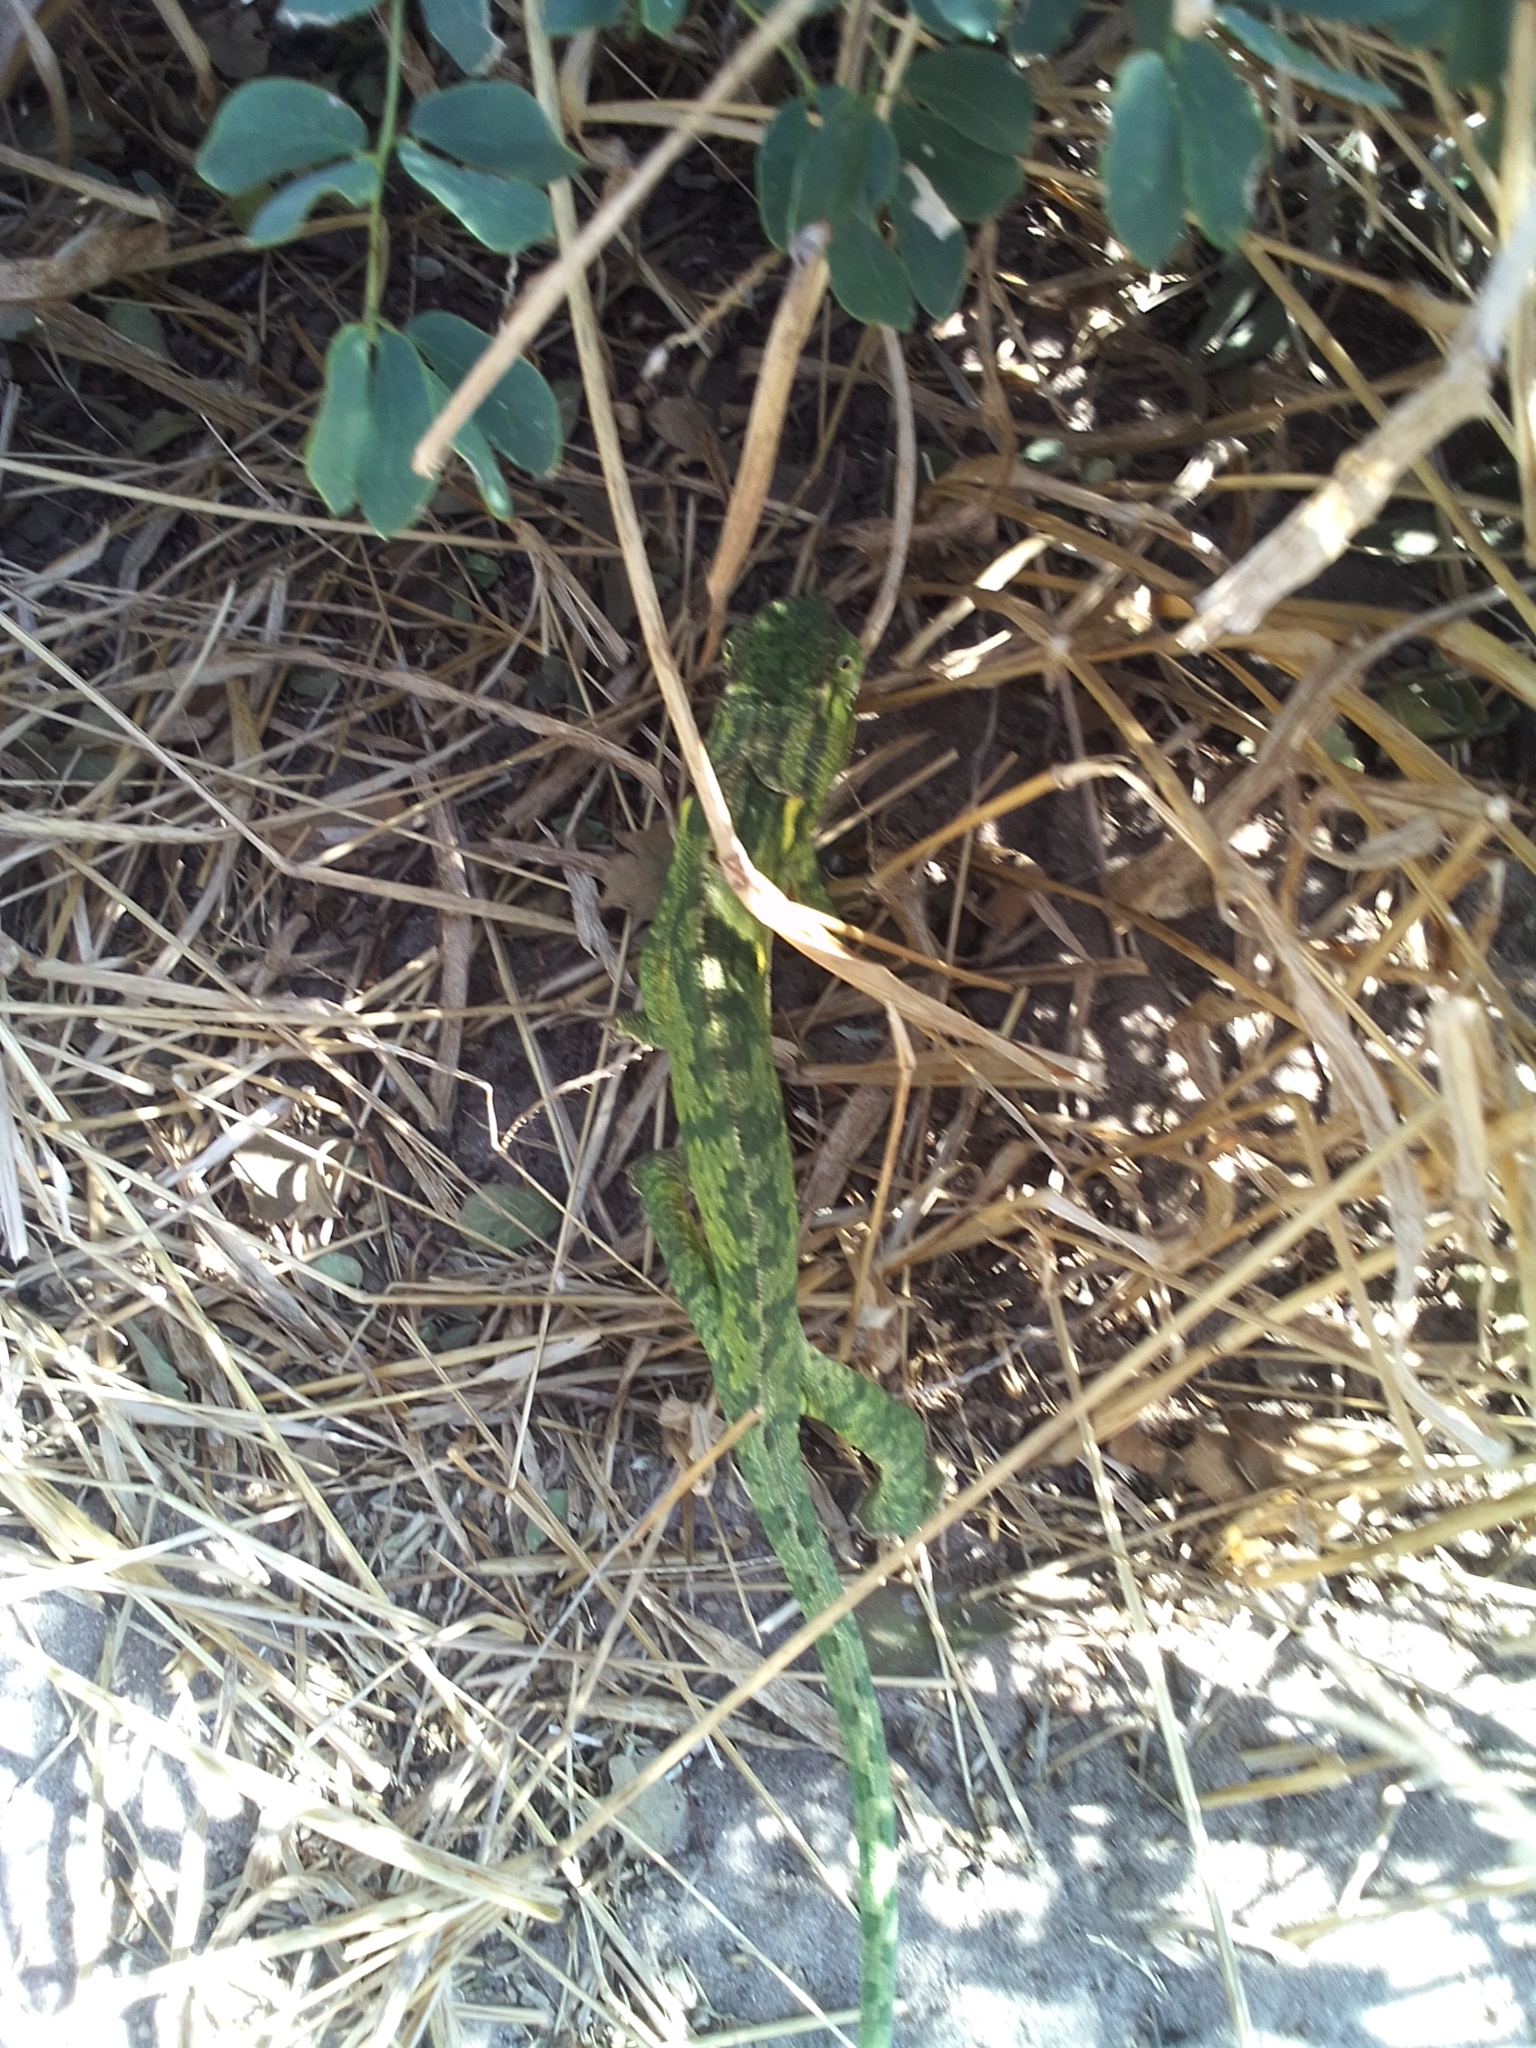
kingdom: Animalia
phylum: Chordata
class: Squamata
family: Chamaeleonidae
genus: Chamaeleo
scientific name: Chamaeleo dilepis
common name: Flapneck chameleon
